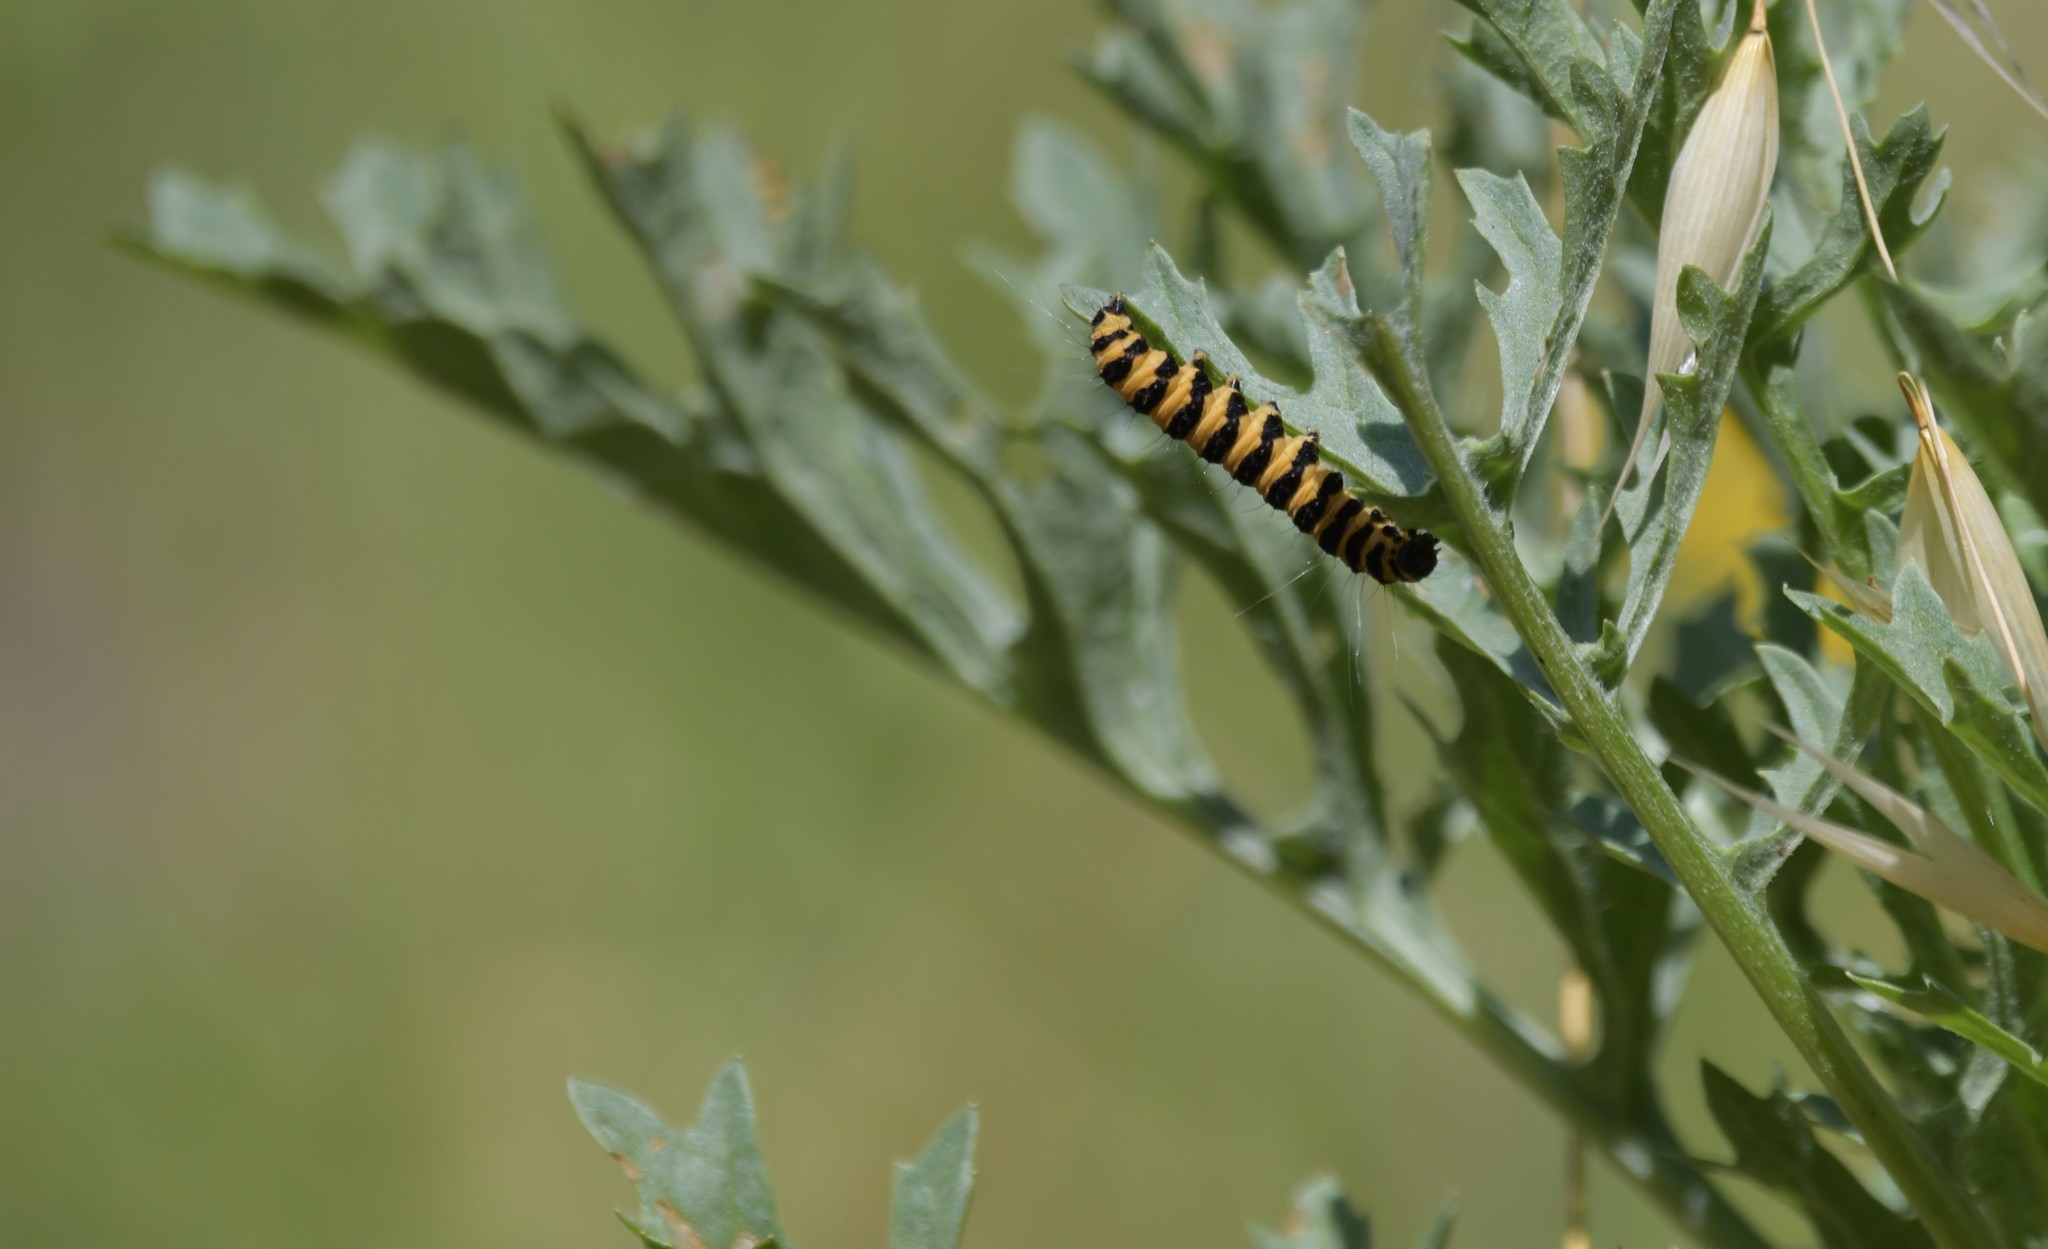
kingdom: Animalia
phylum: Arthropoda
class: Insecta
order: Lepidoptera
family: Erebidae
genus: Tyria
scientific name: Tyria jacobaeae
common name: Cinnabar
